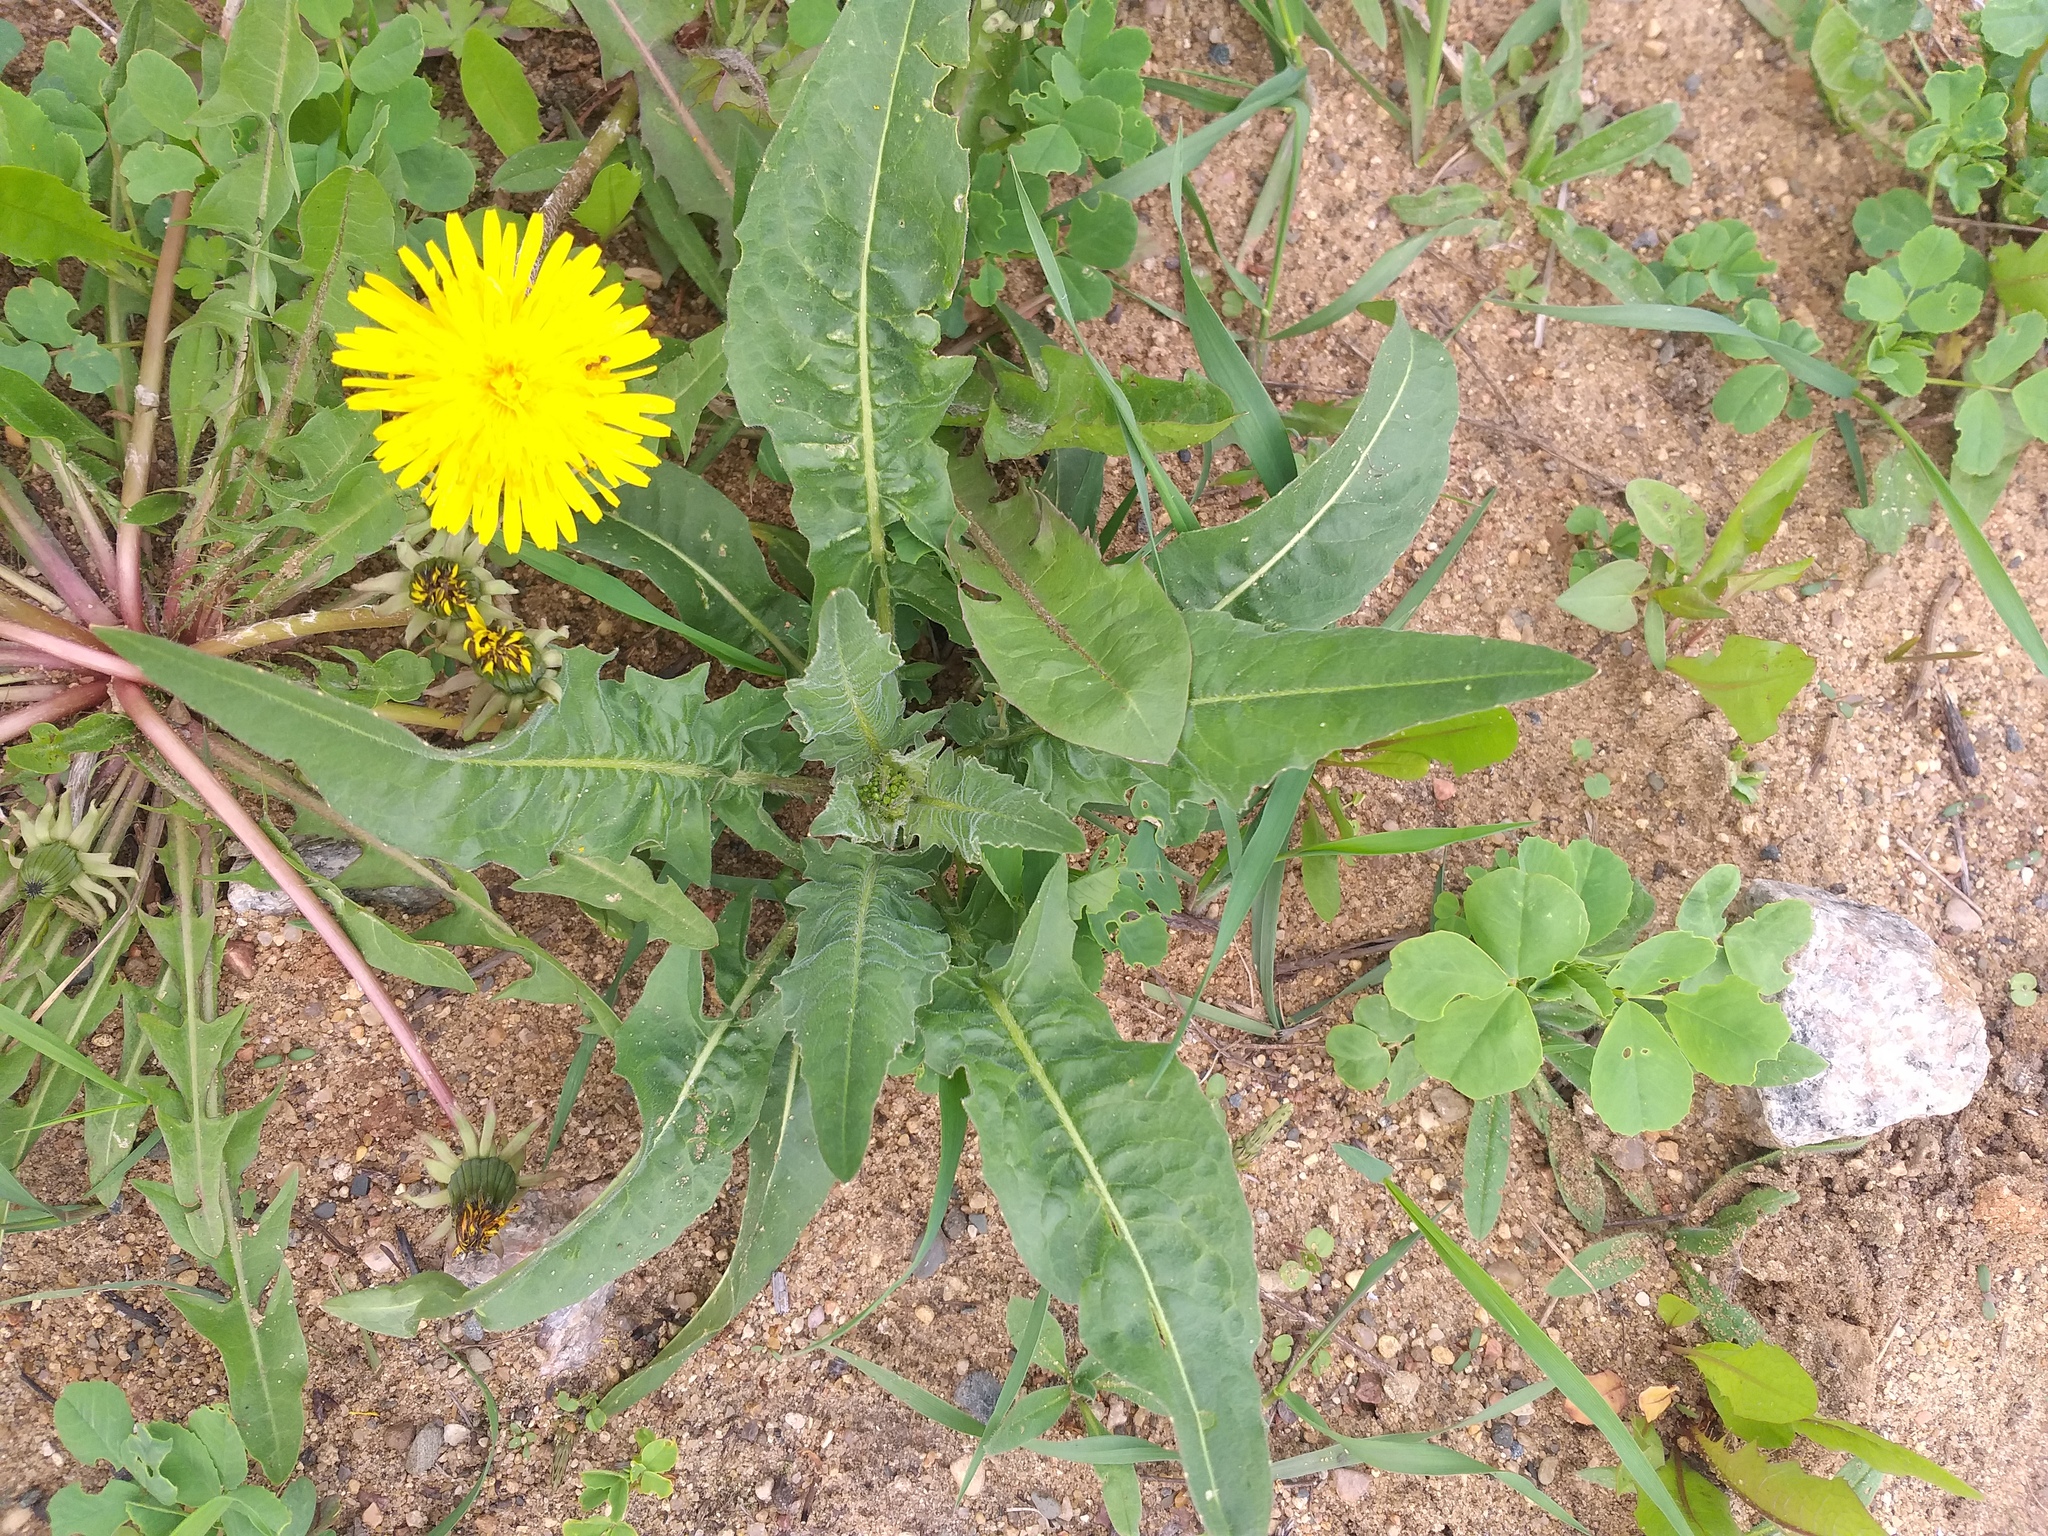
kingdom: Plantae
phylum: Tracheophyta
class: Magnoliopsida
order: Brassicales
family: Brassicaceae
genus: Bunias
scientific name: Bunias orientalis
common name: Warty-cabbage
